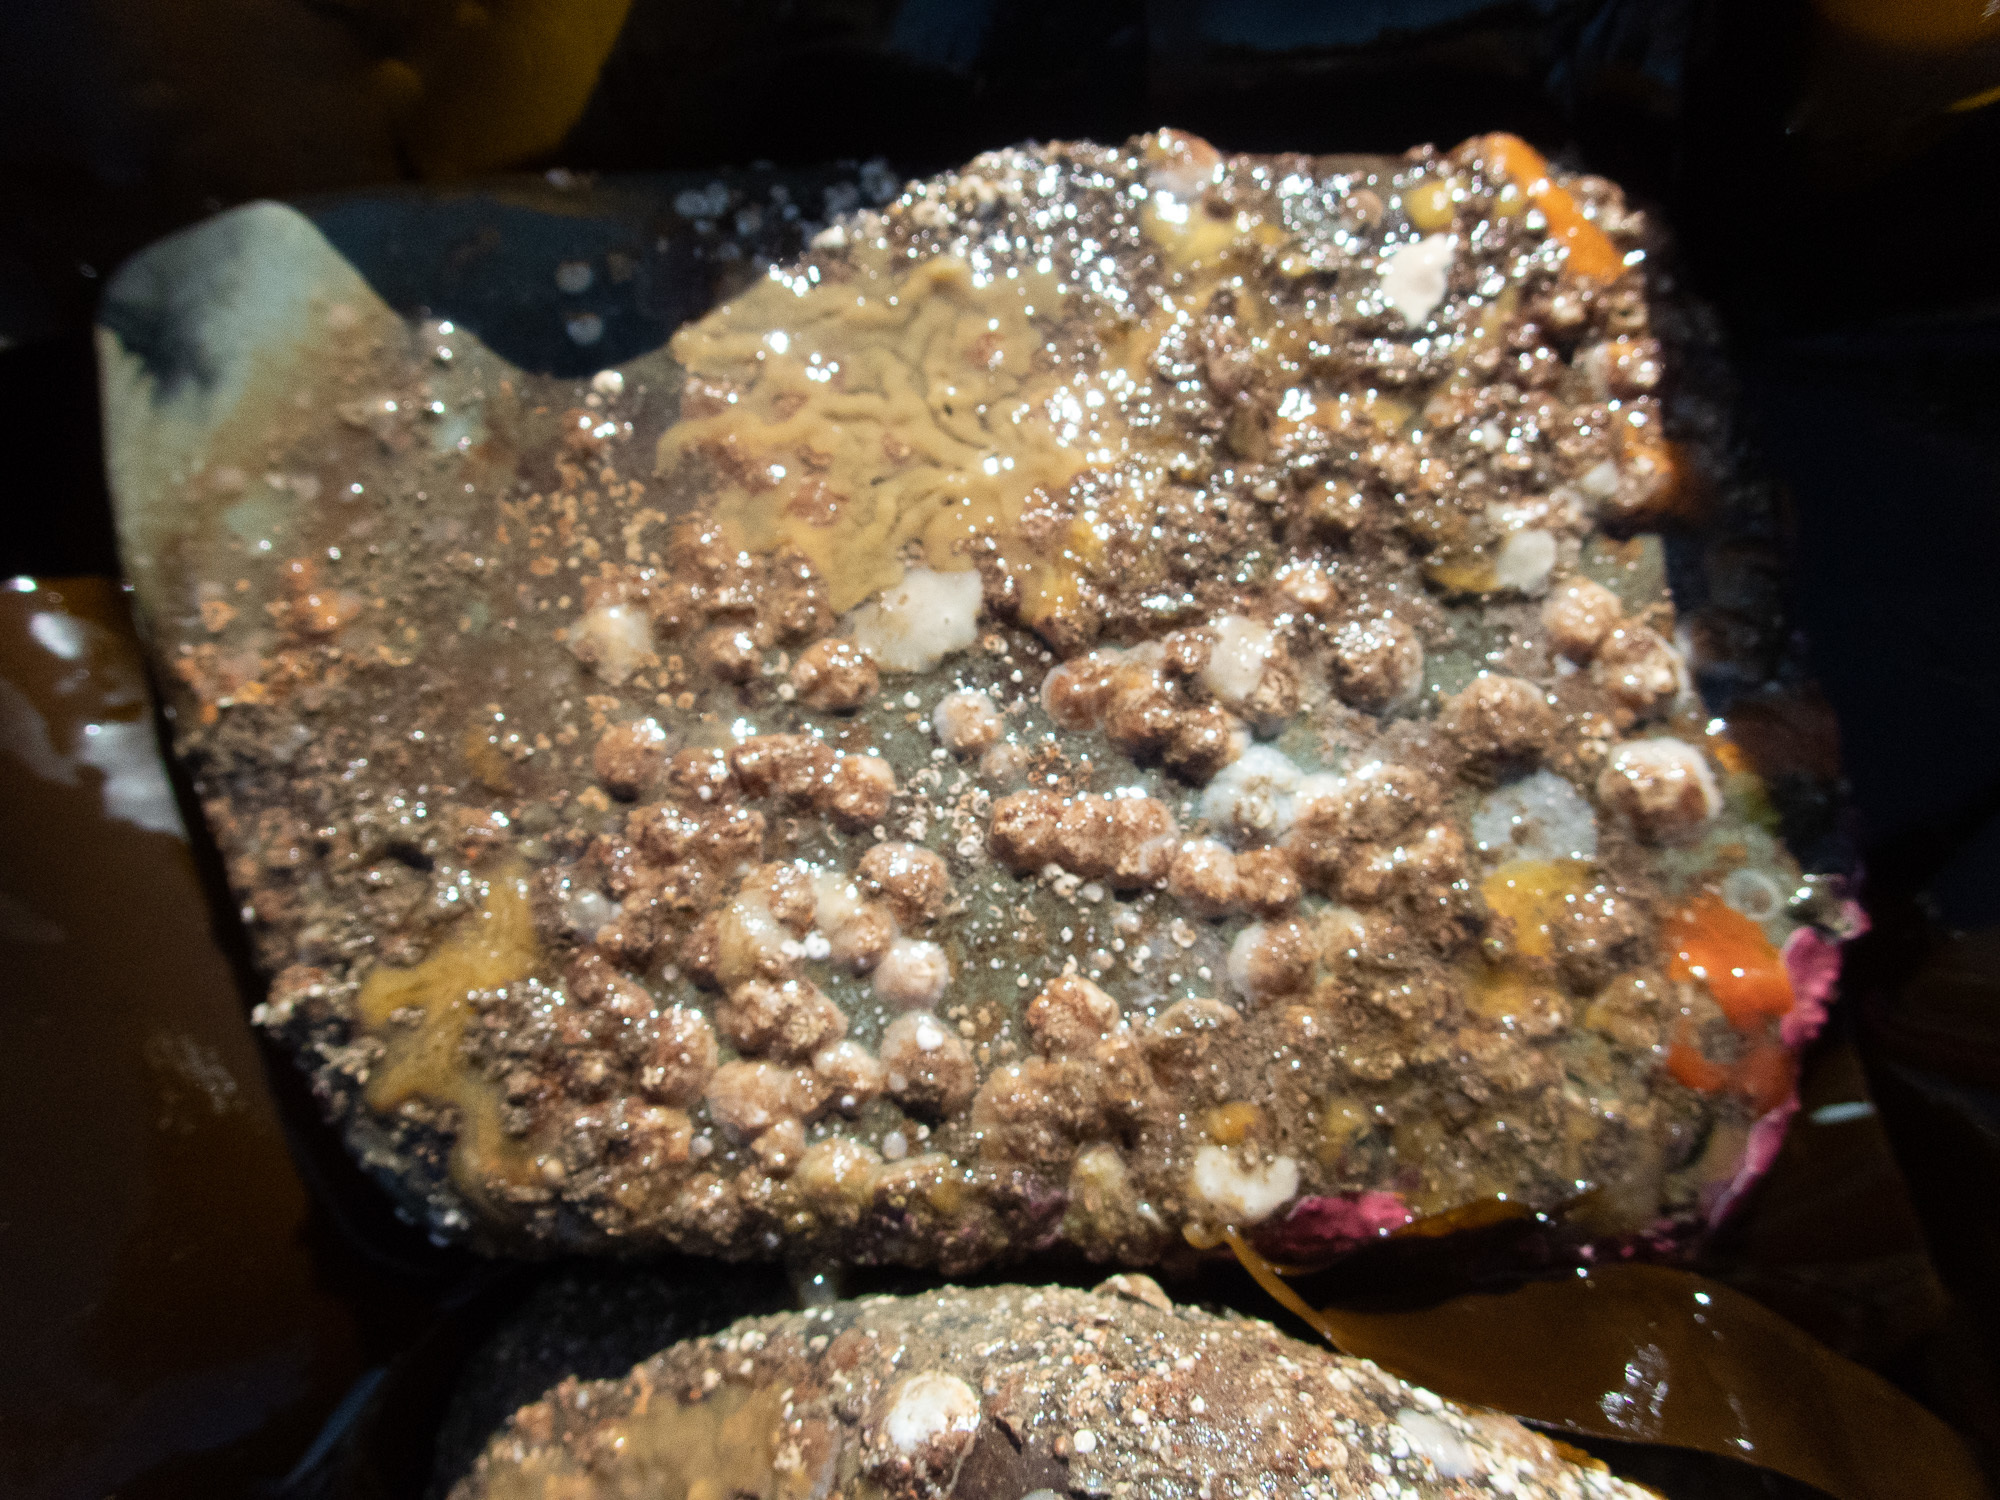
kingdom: Animalia
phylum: Arthropoda
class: Maxillopoda
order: Sessilia
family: Verrucidae
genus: Verruca
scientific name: Verruca stroemia
